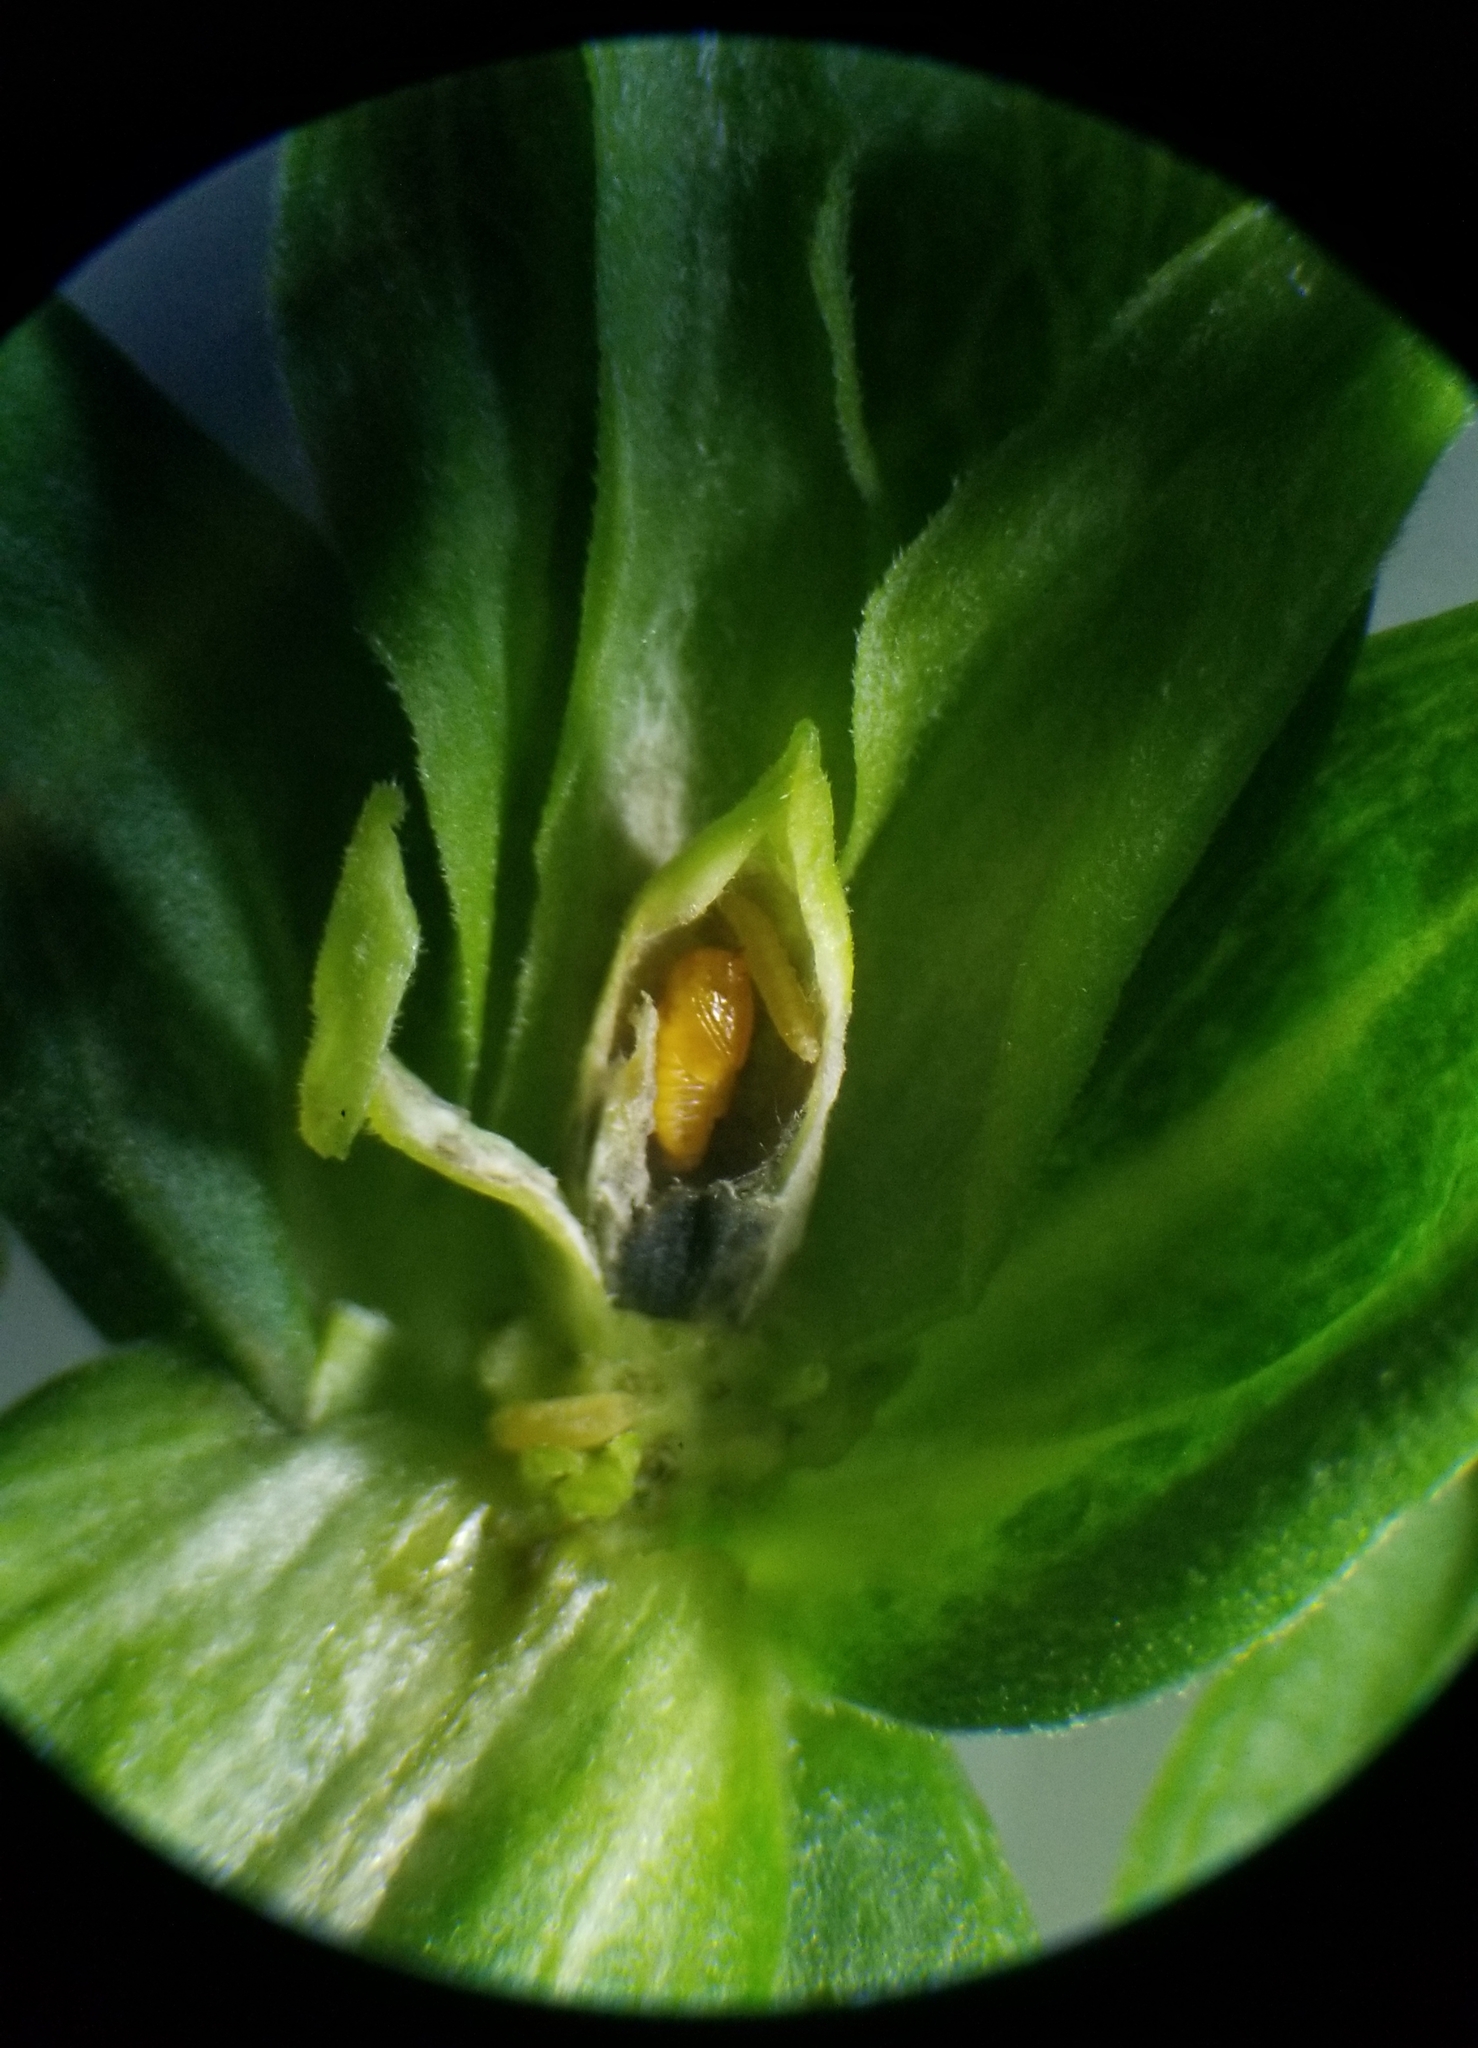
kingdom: Animalia
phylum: Arthropoda
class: Insecta
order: Diptera
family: Cecidomyiidae
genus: Asphondylia
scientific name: Asphondylia pseudorosa
